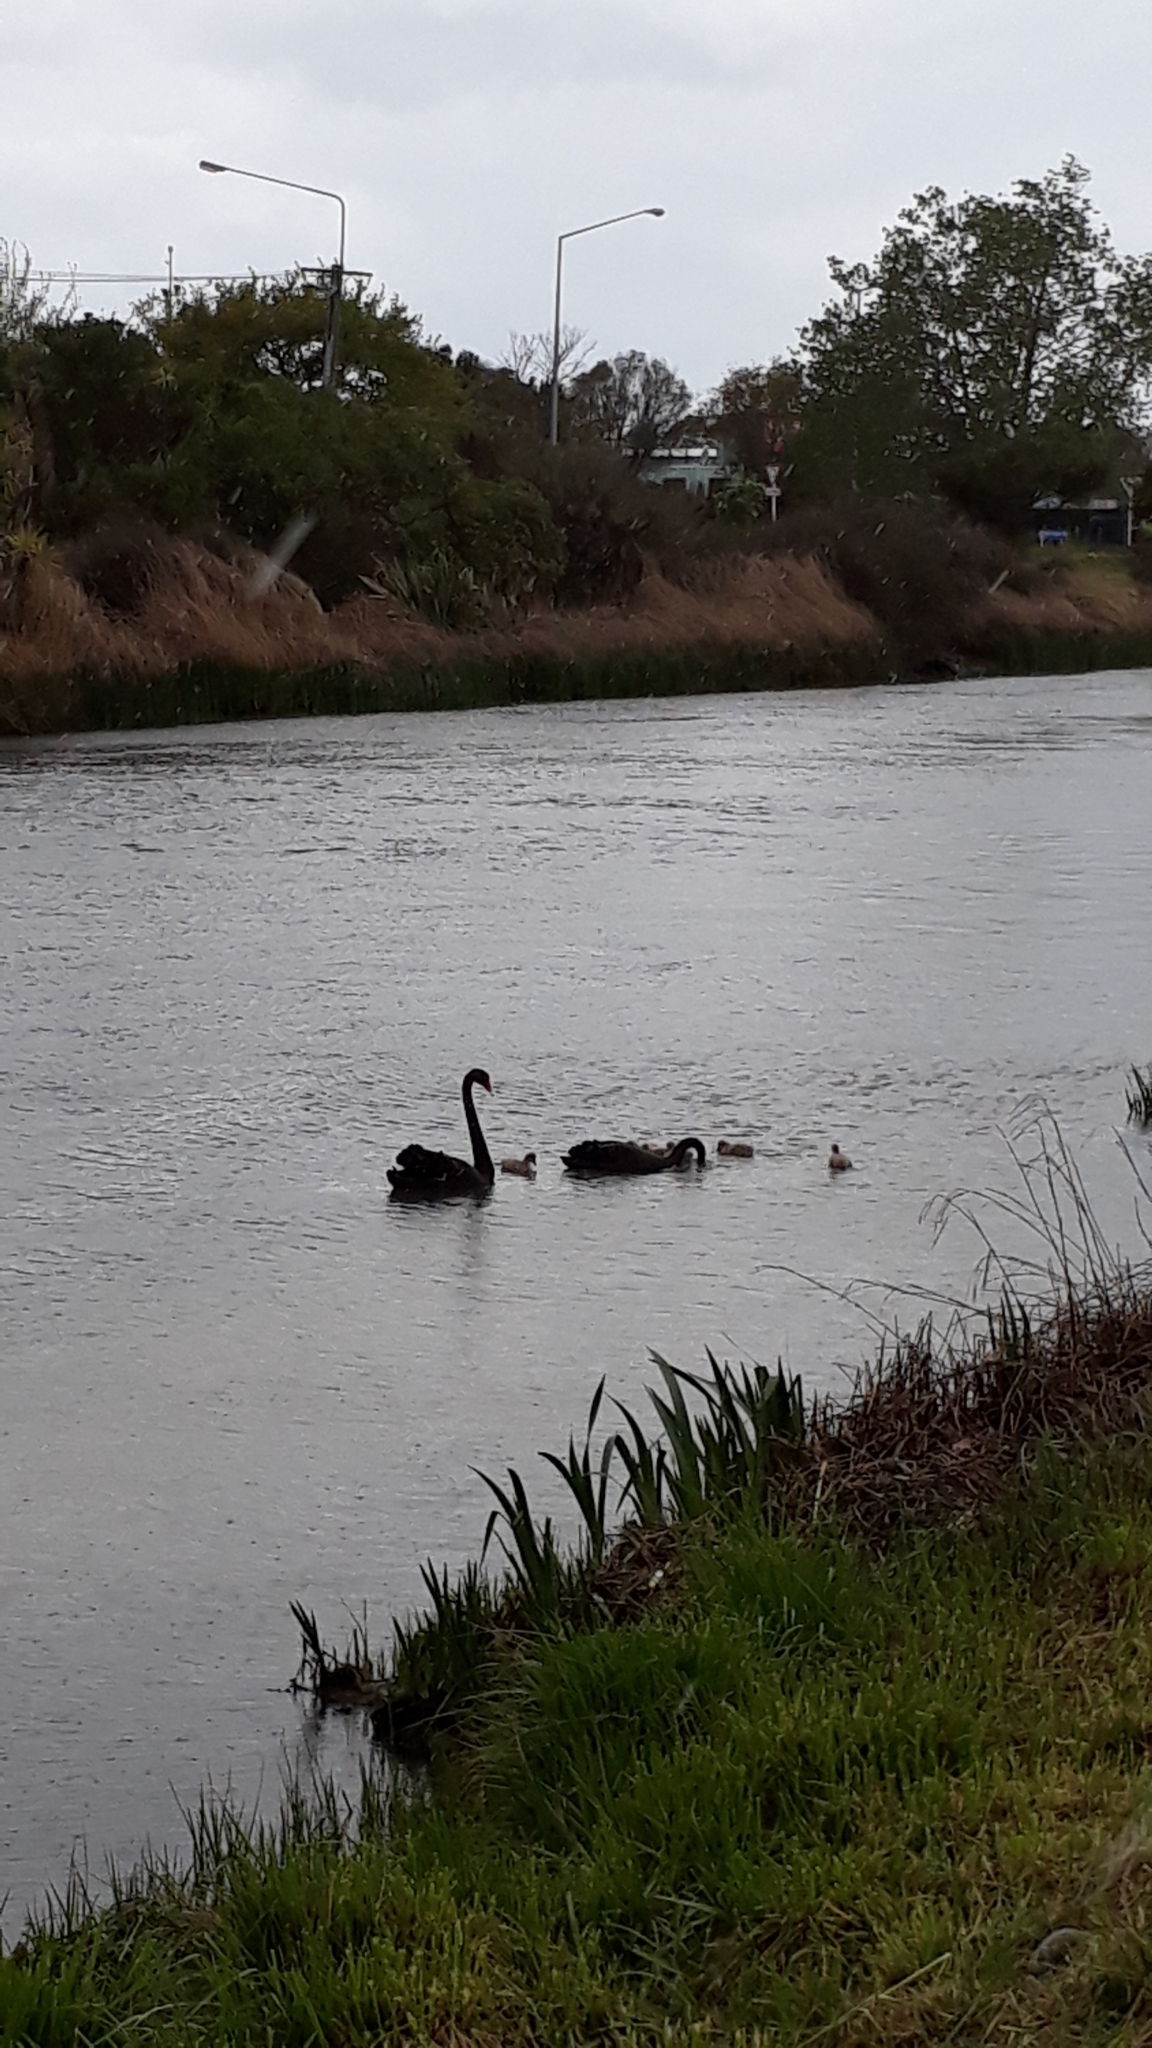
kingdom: Animalia
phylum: Chordata
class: Aves
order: Anseriformes
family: Anatidae
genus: Cygnus
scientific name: Cygnus atratus
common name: Black swan
